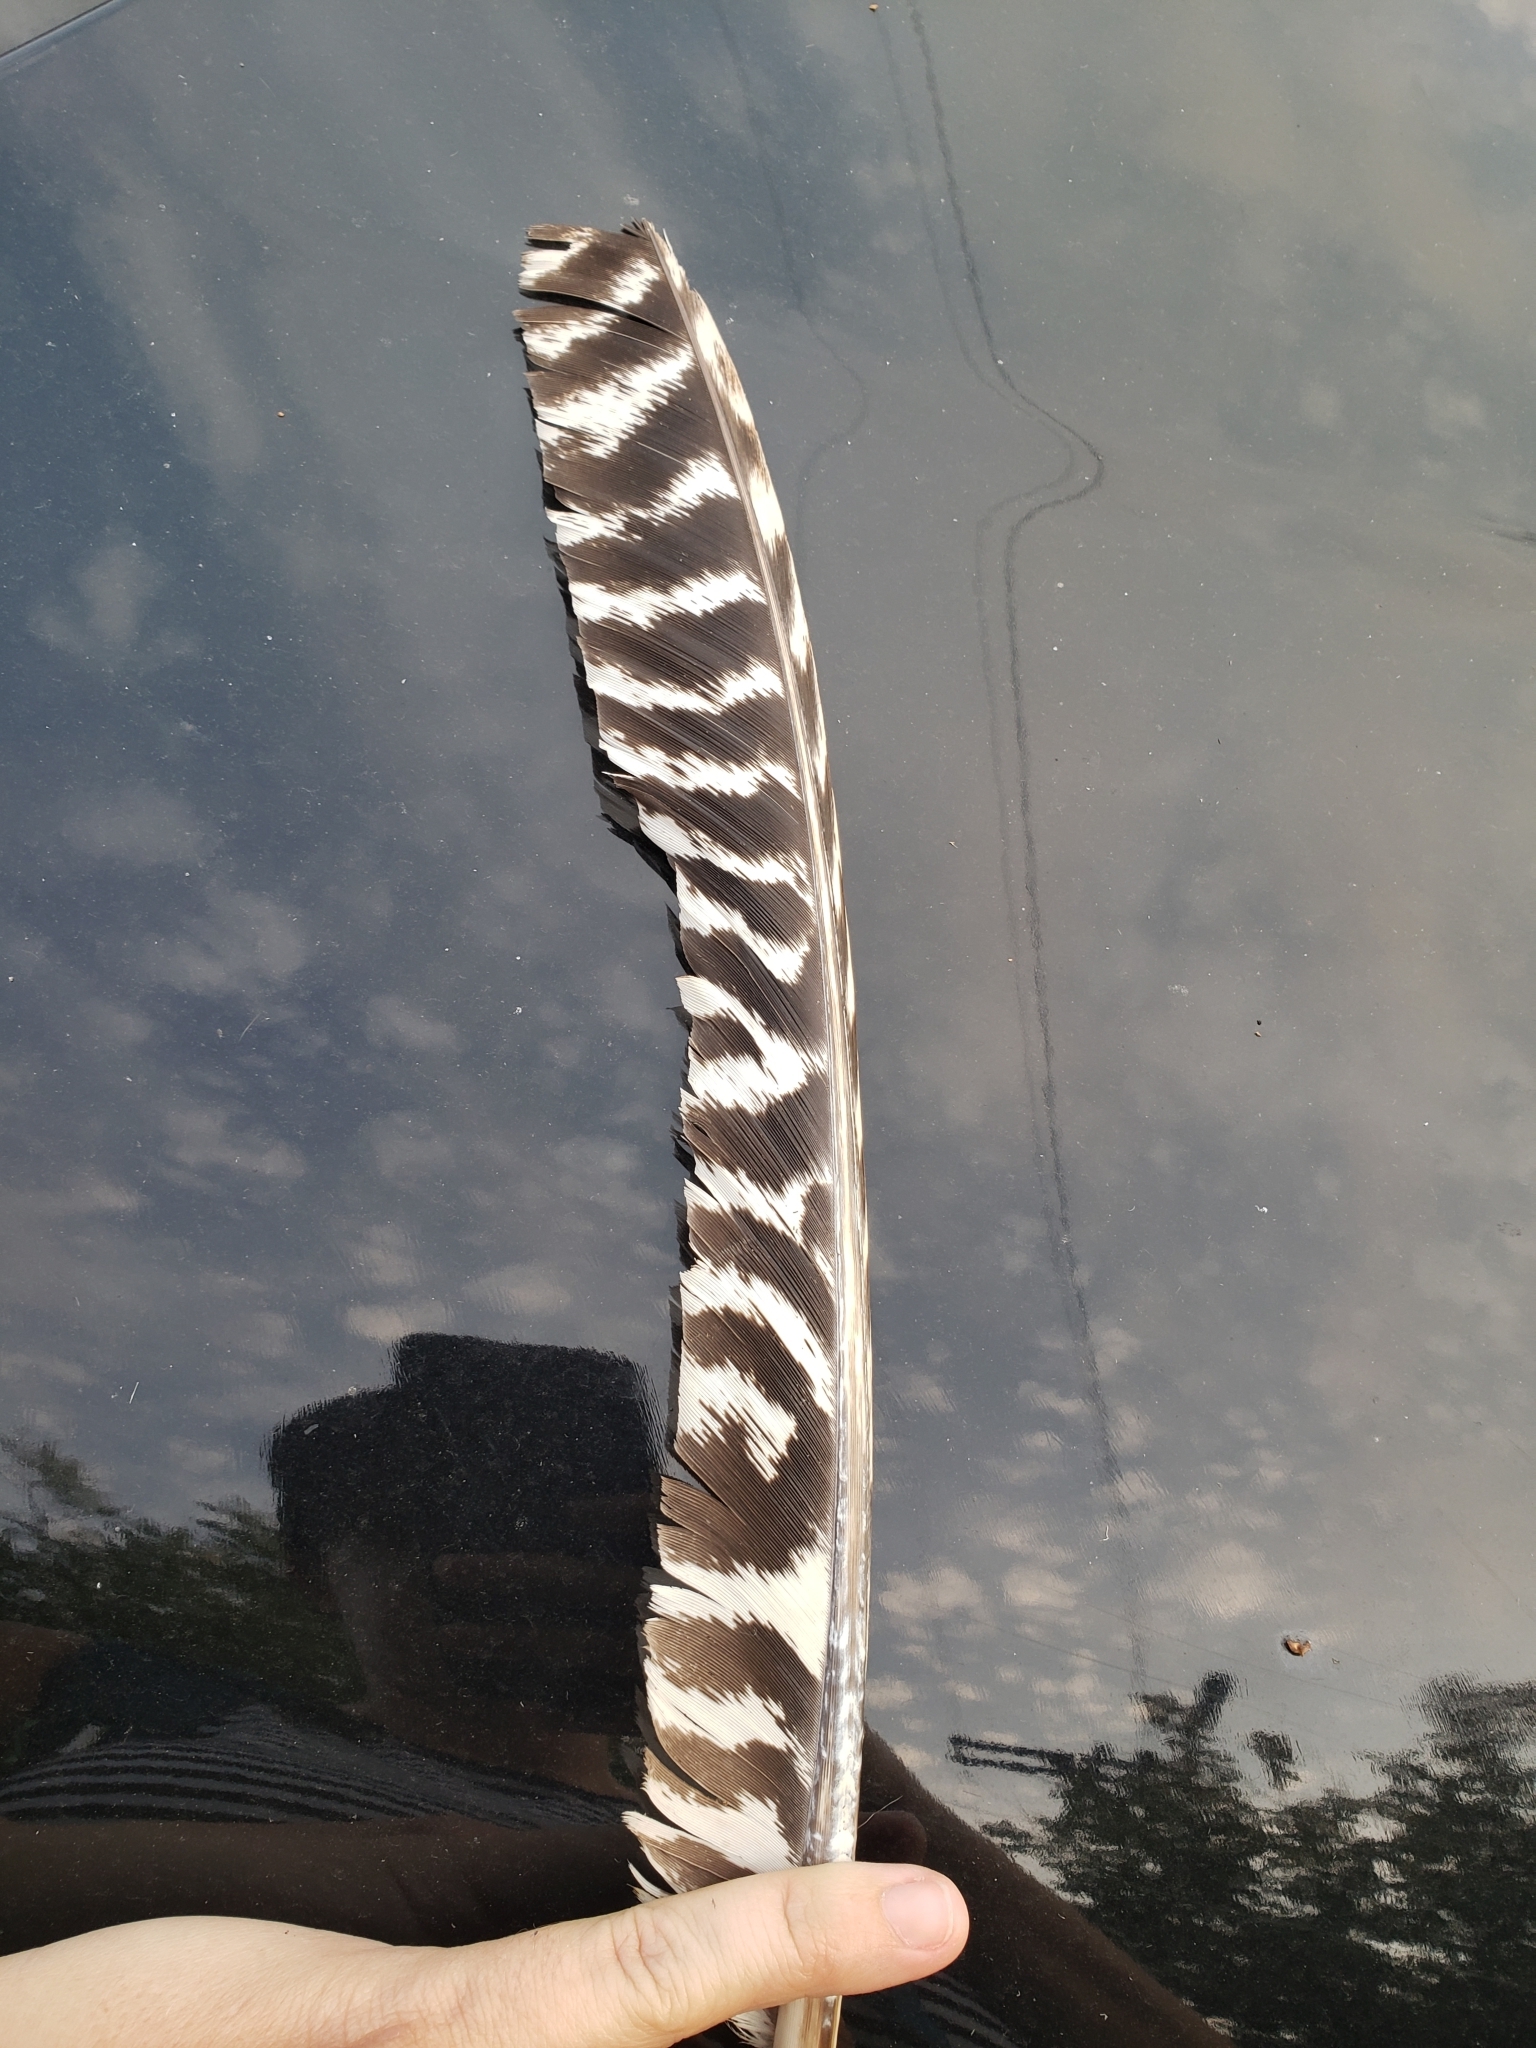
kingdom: Animalia
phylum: Chordata
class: Aves
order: Galliformes
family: Phasianidae
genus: Meleagris
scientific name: Meleagris gallopavo
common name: Wild turkey
